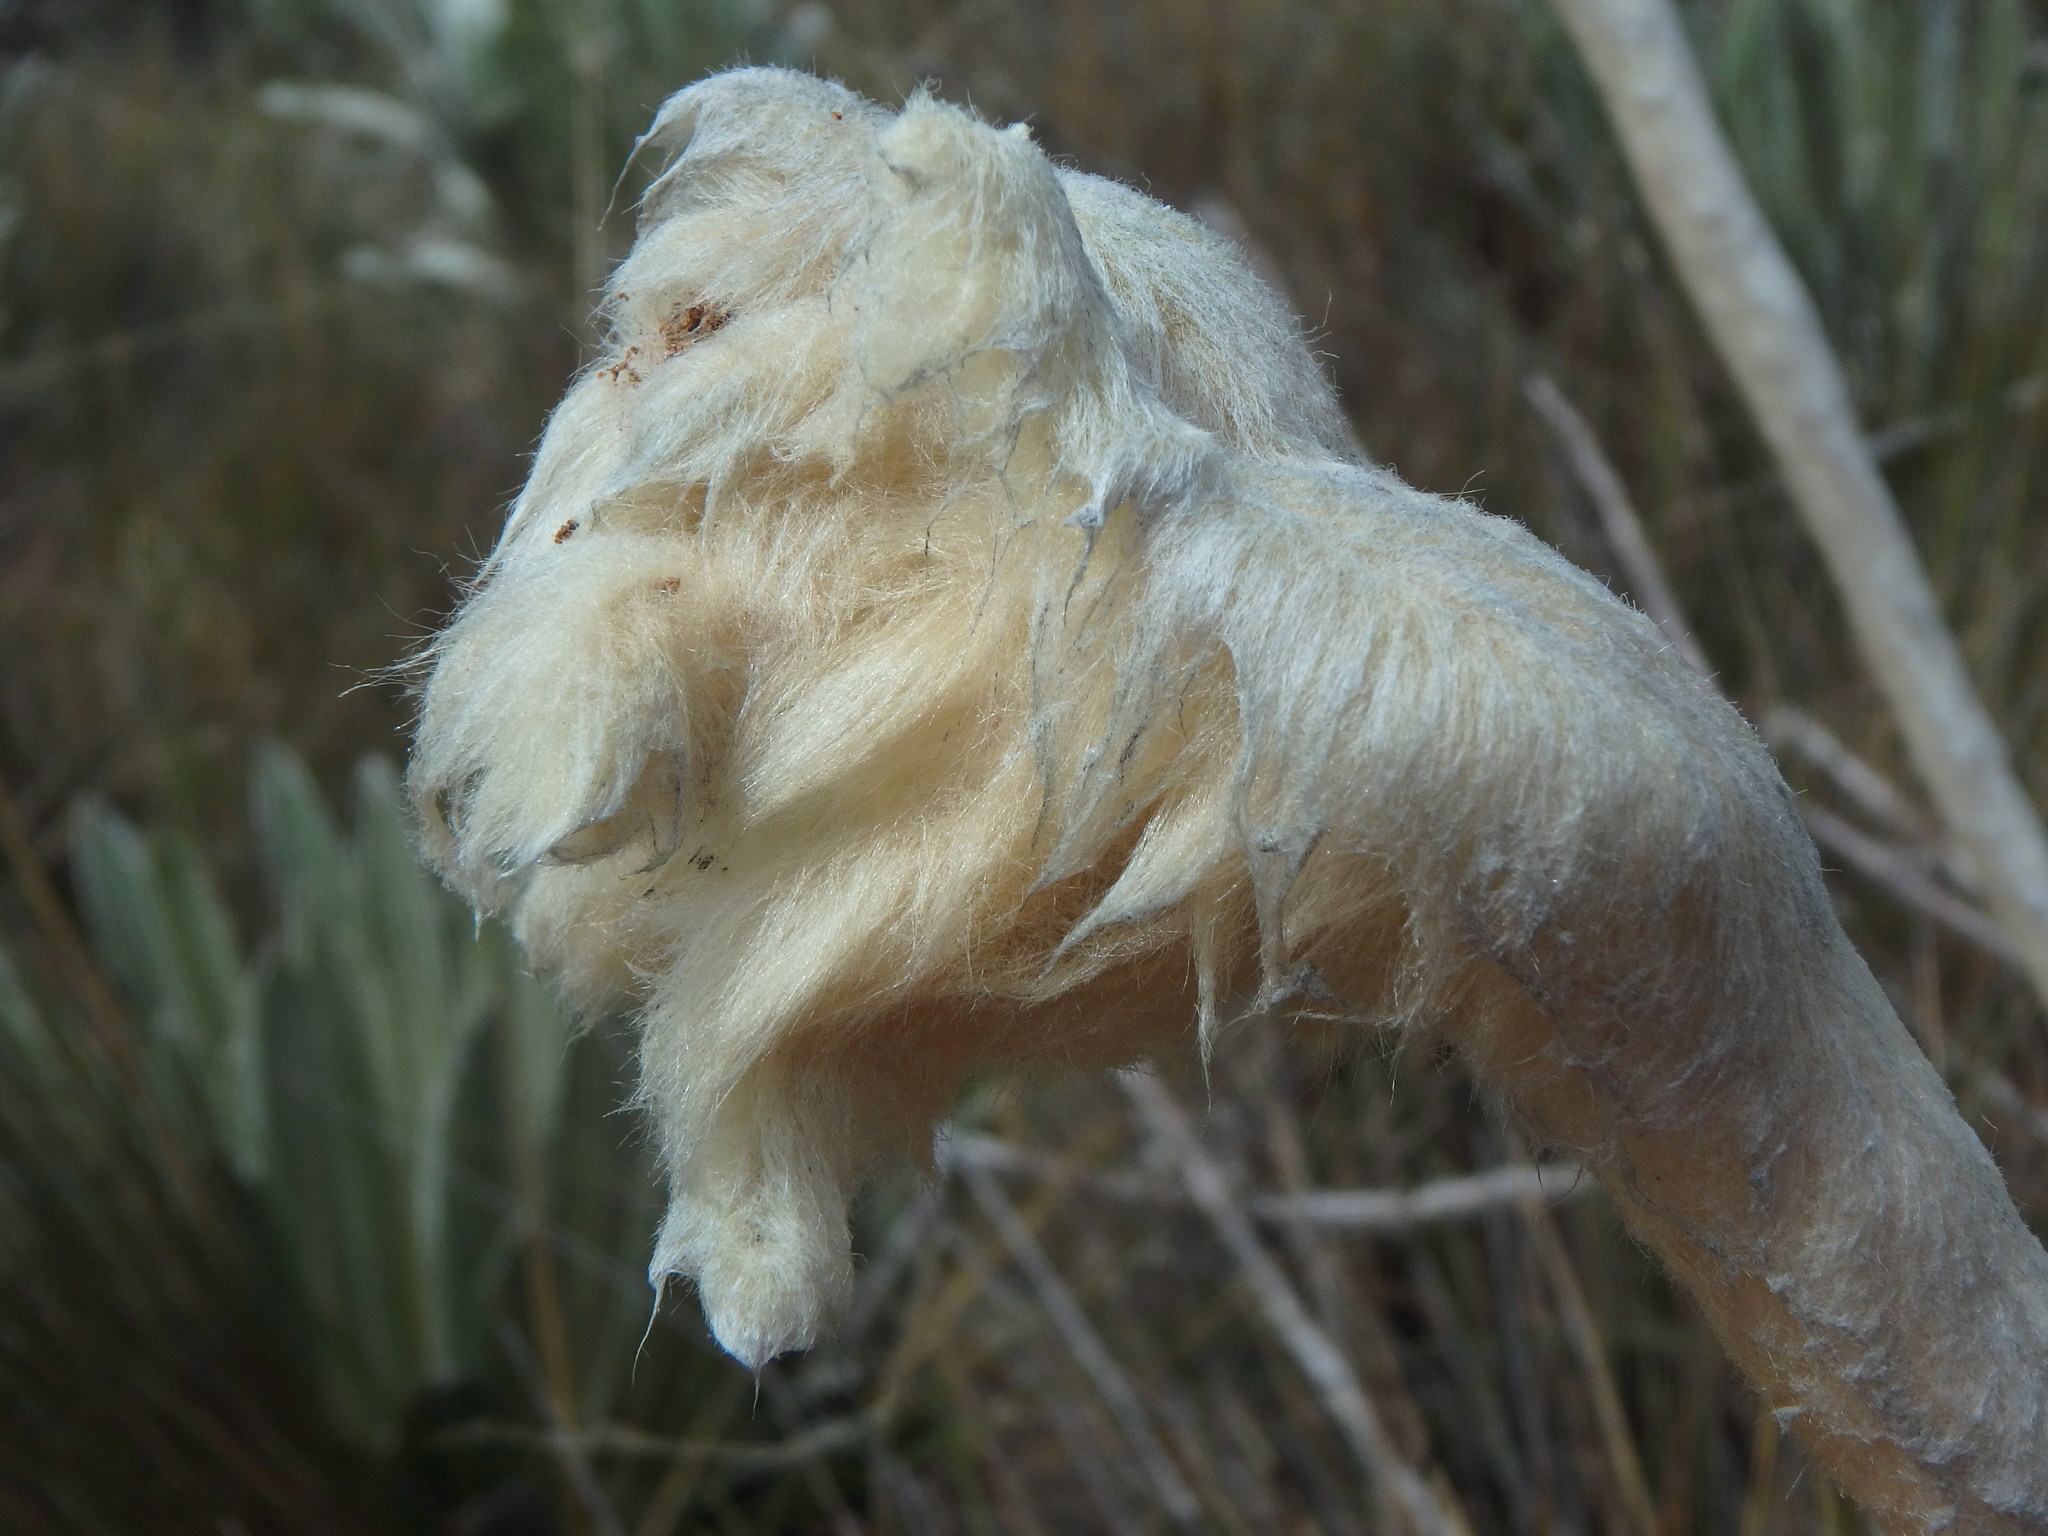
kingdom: Plantae
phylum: Tracheophyta
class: Magnoliopsida
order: Asterales
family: Asteraceae
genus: Espeletia
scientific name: Espeletia congestiflora
